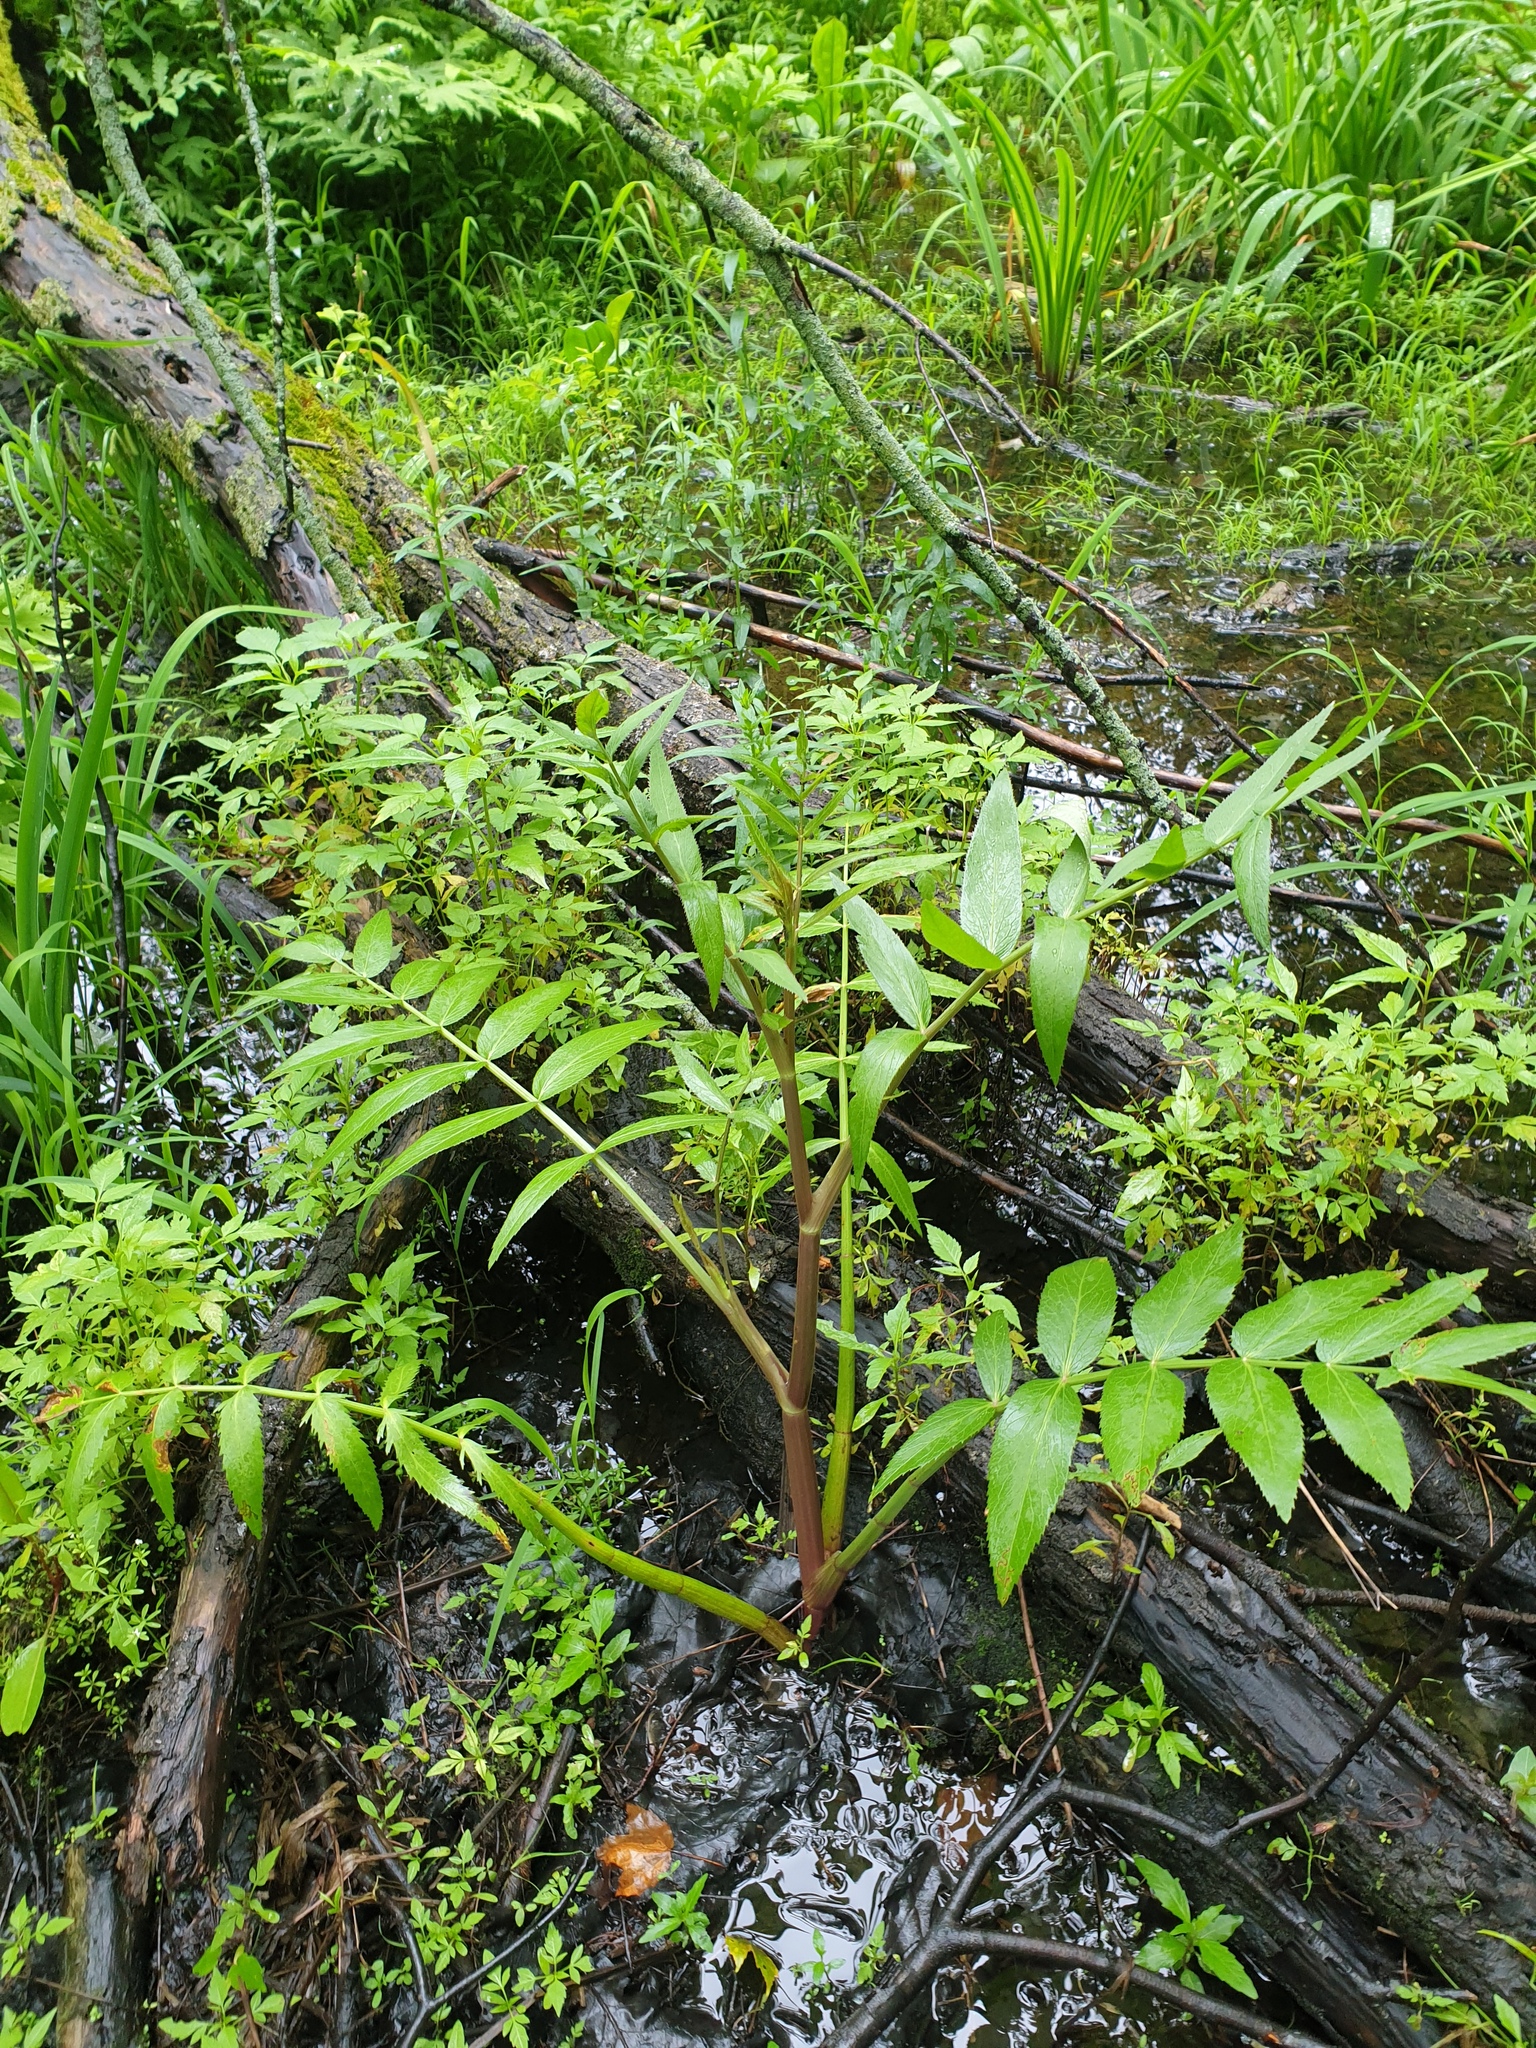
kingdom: Plantae
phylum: Tracheophyta
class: Magnoliopsida
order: Apiales
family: Apiaceae
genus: Sium
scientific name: Sium suave
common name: Hemlock water-parsnip
